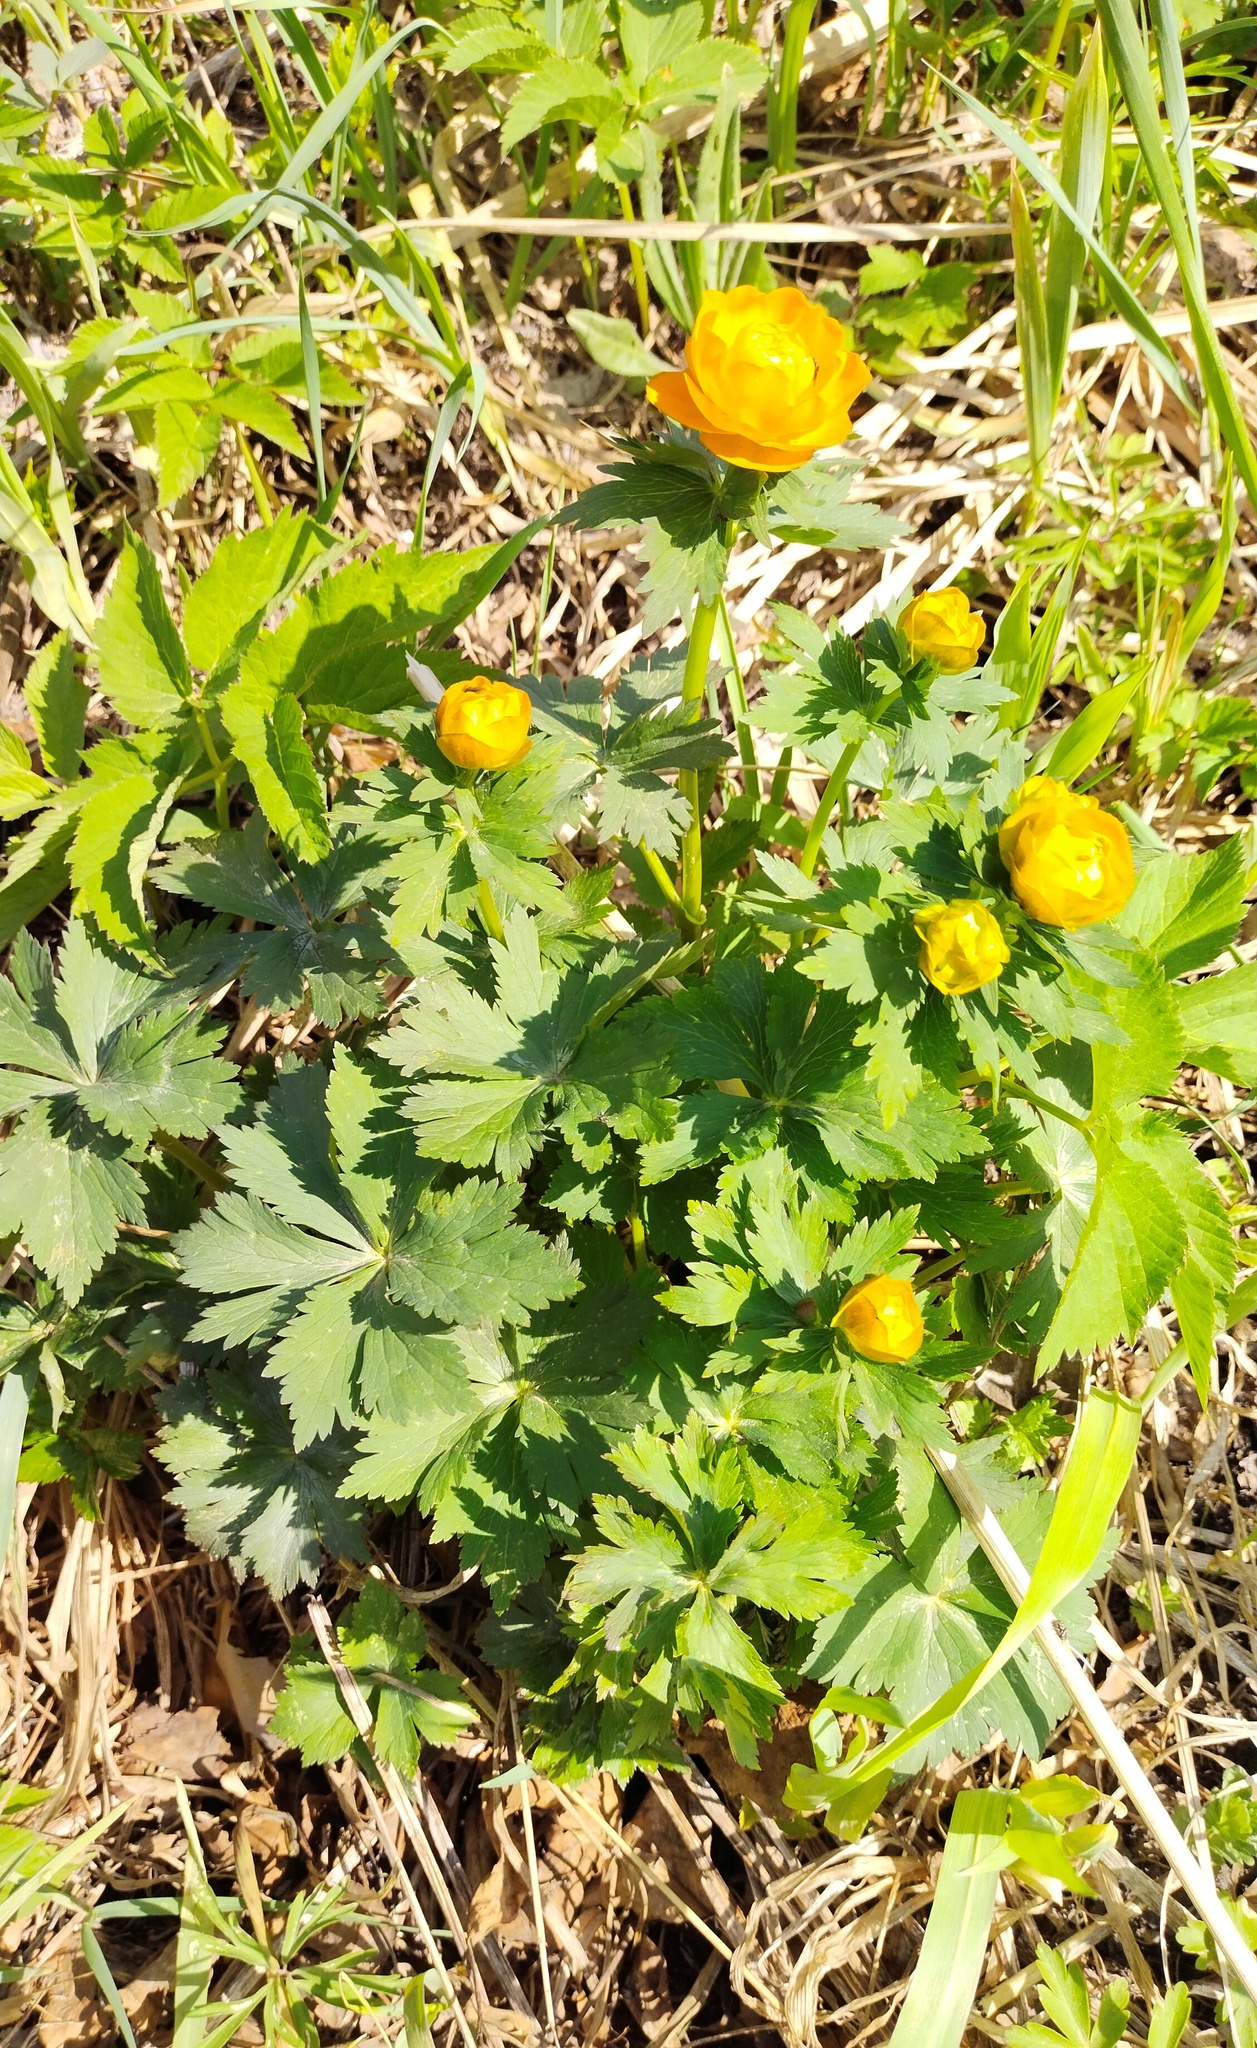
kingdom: Plantae
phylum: Tracheophyta
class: Magnoliopsida
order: Ranunculales
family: Ranunculaceae
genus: Trollius
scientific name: Trollius asiaticus
